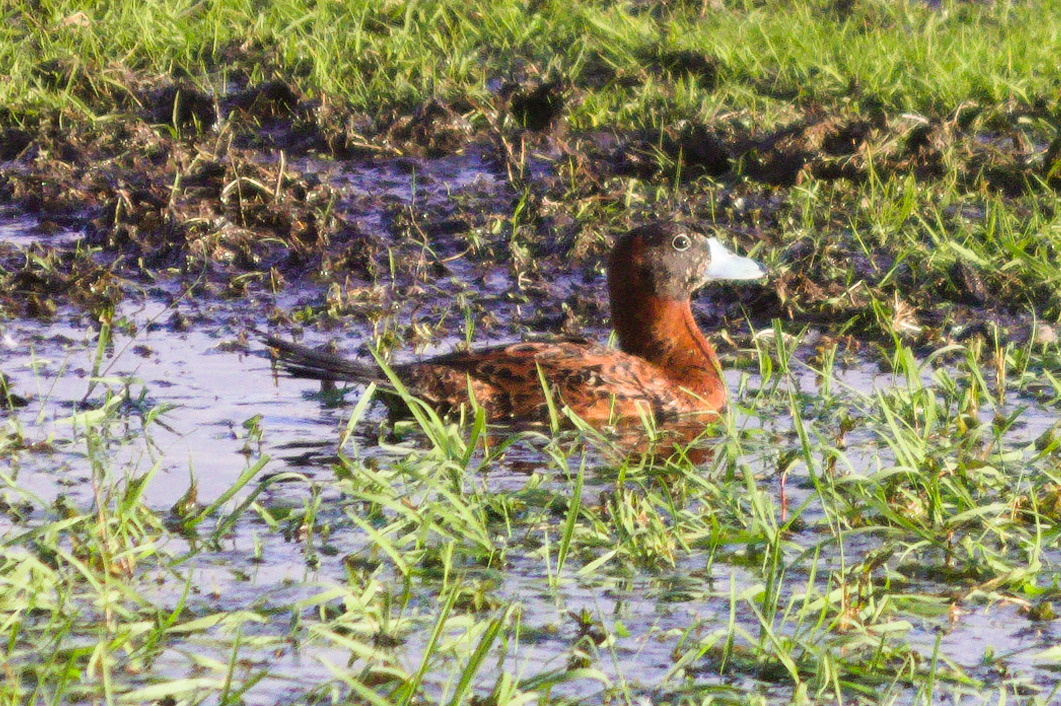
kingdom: Animalia
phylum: Chordata
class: Aves
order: Anseriformes
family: Anatidae
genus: Nomonyx
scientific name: Nomonyx dominicus
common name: Masked duck
